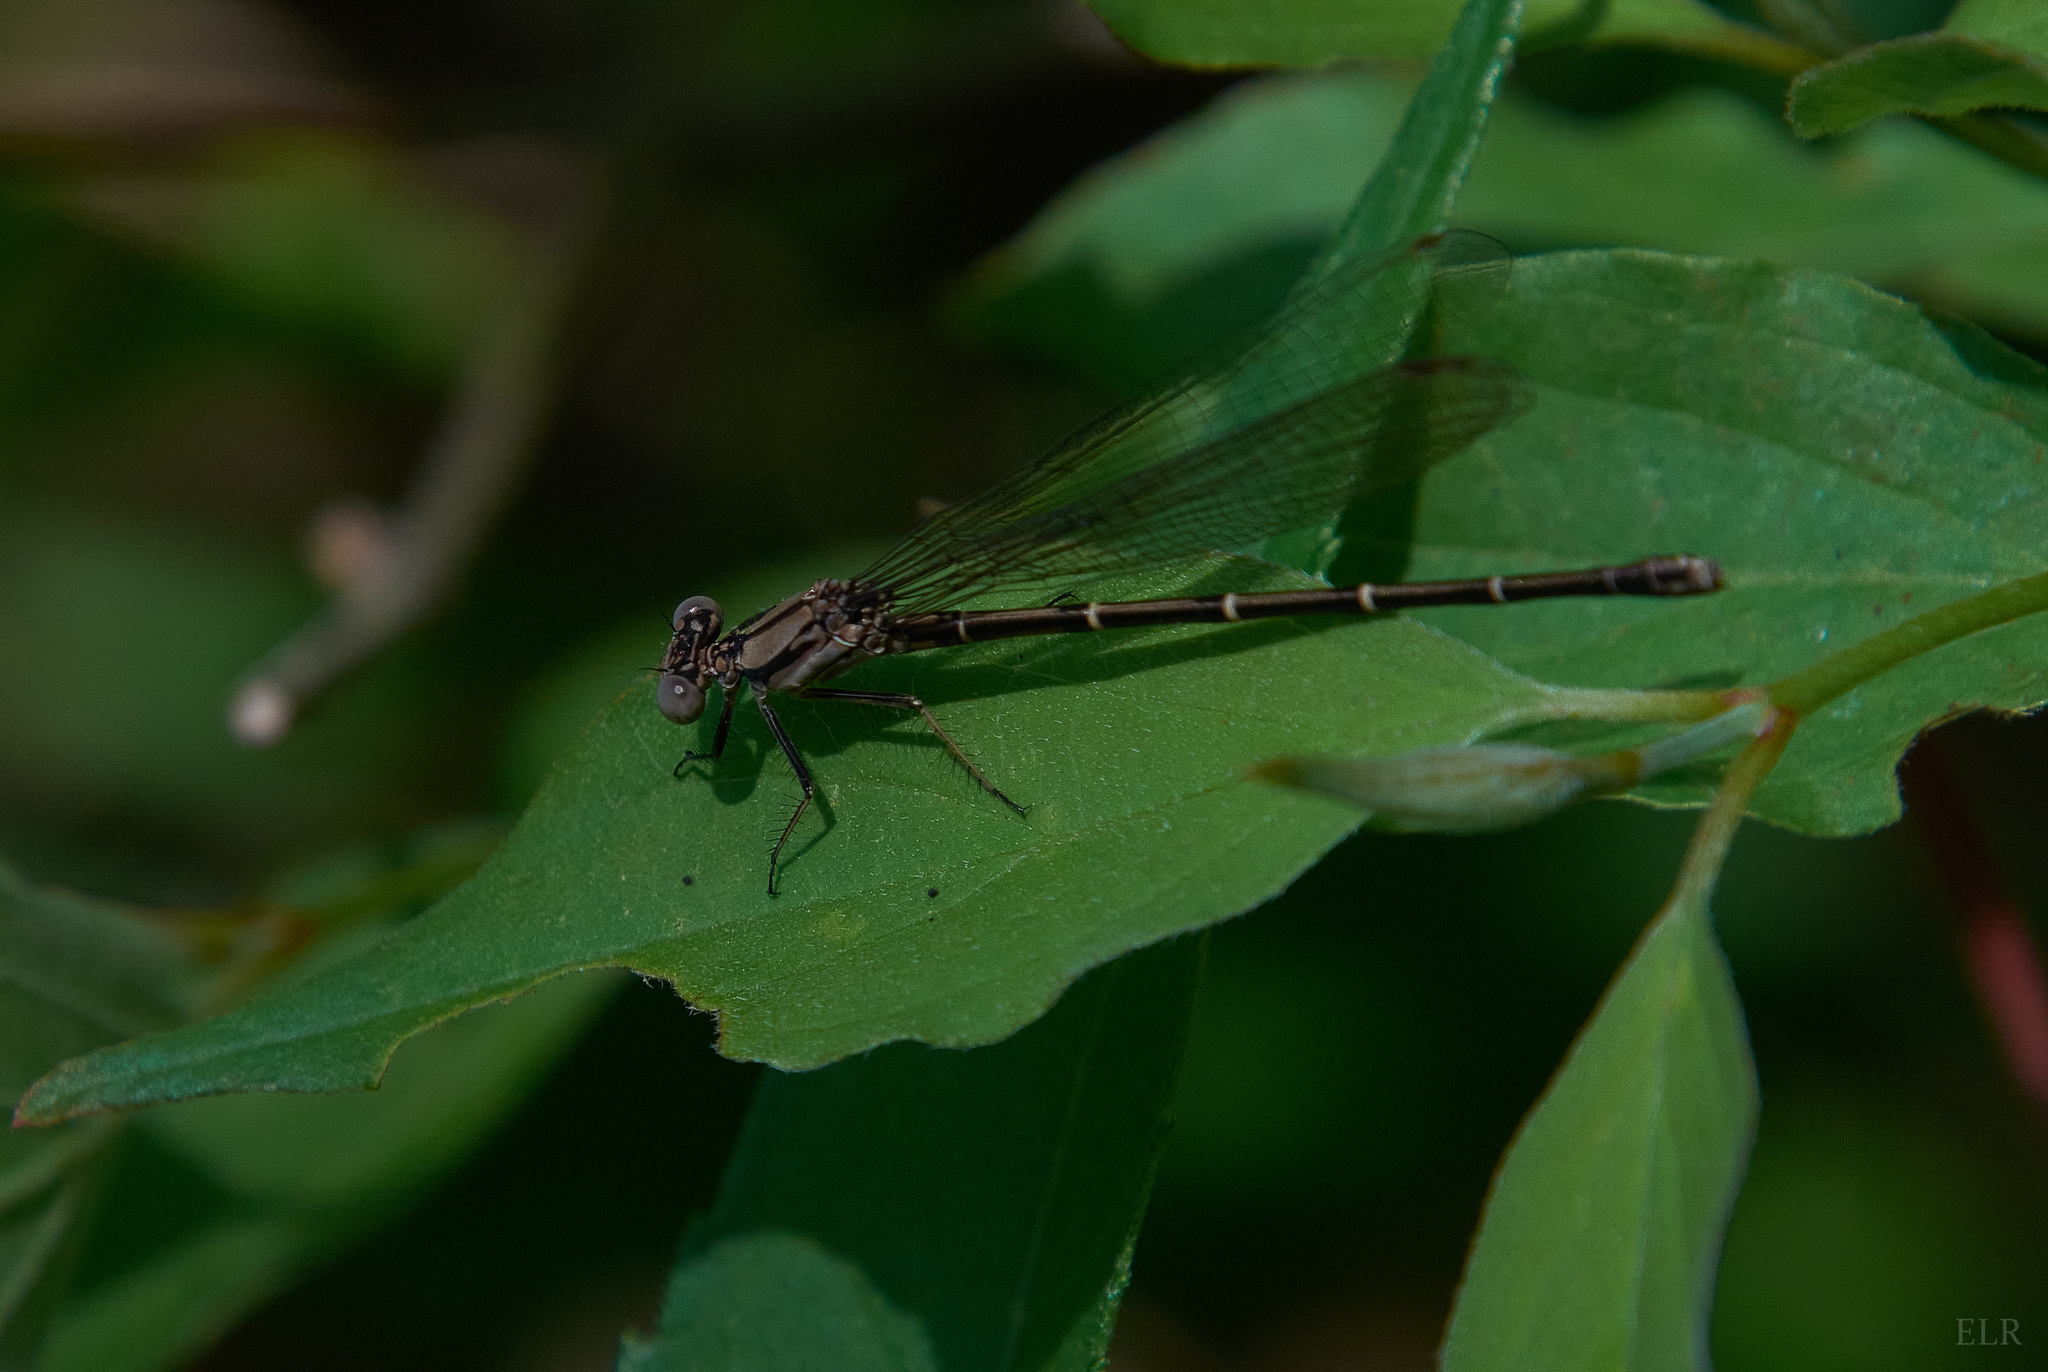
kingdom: Animalia
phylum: Arthropoda
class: Insecta
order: Odonata
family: Coenagrionidae
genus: Argia
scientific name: Argia tibialis
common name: Blue-tipped dancer
